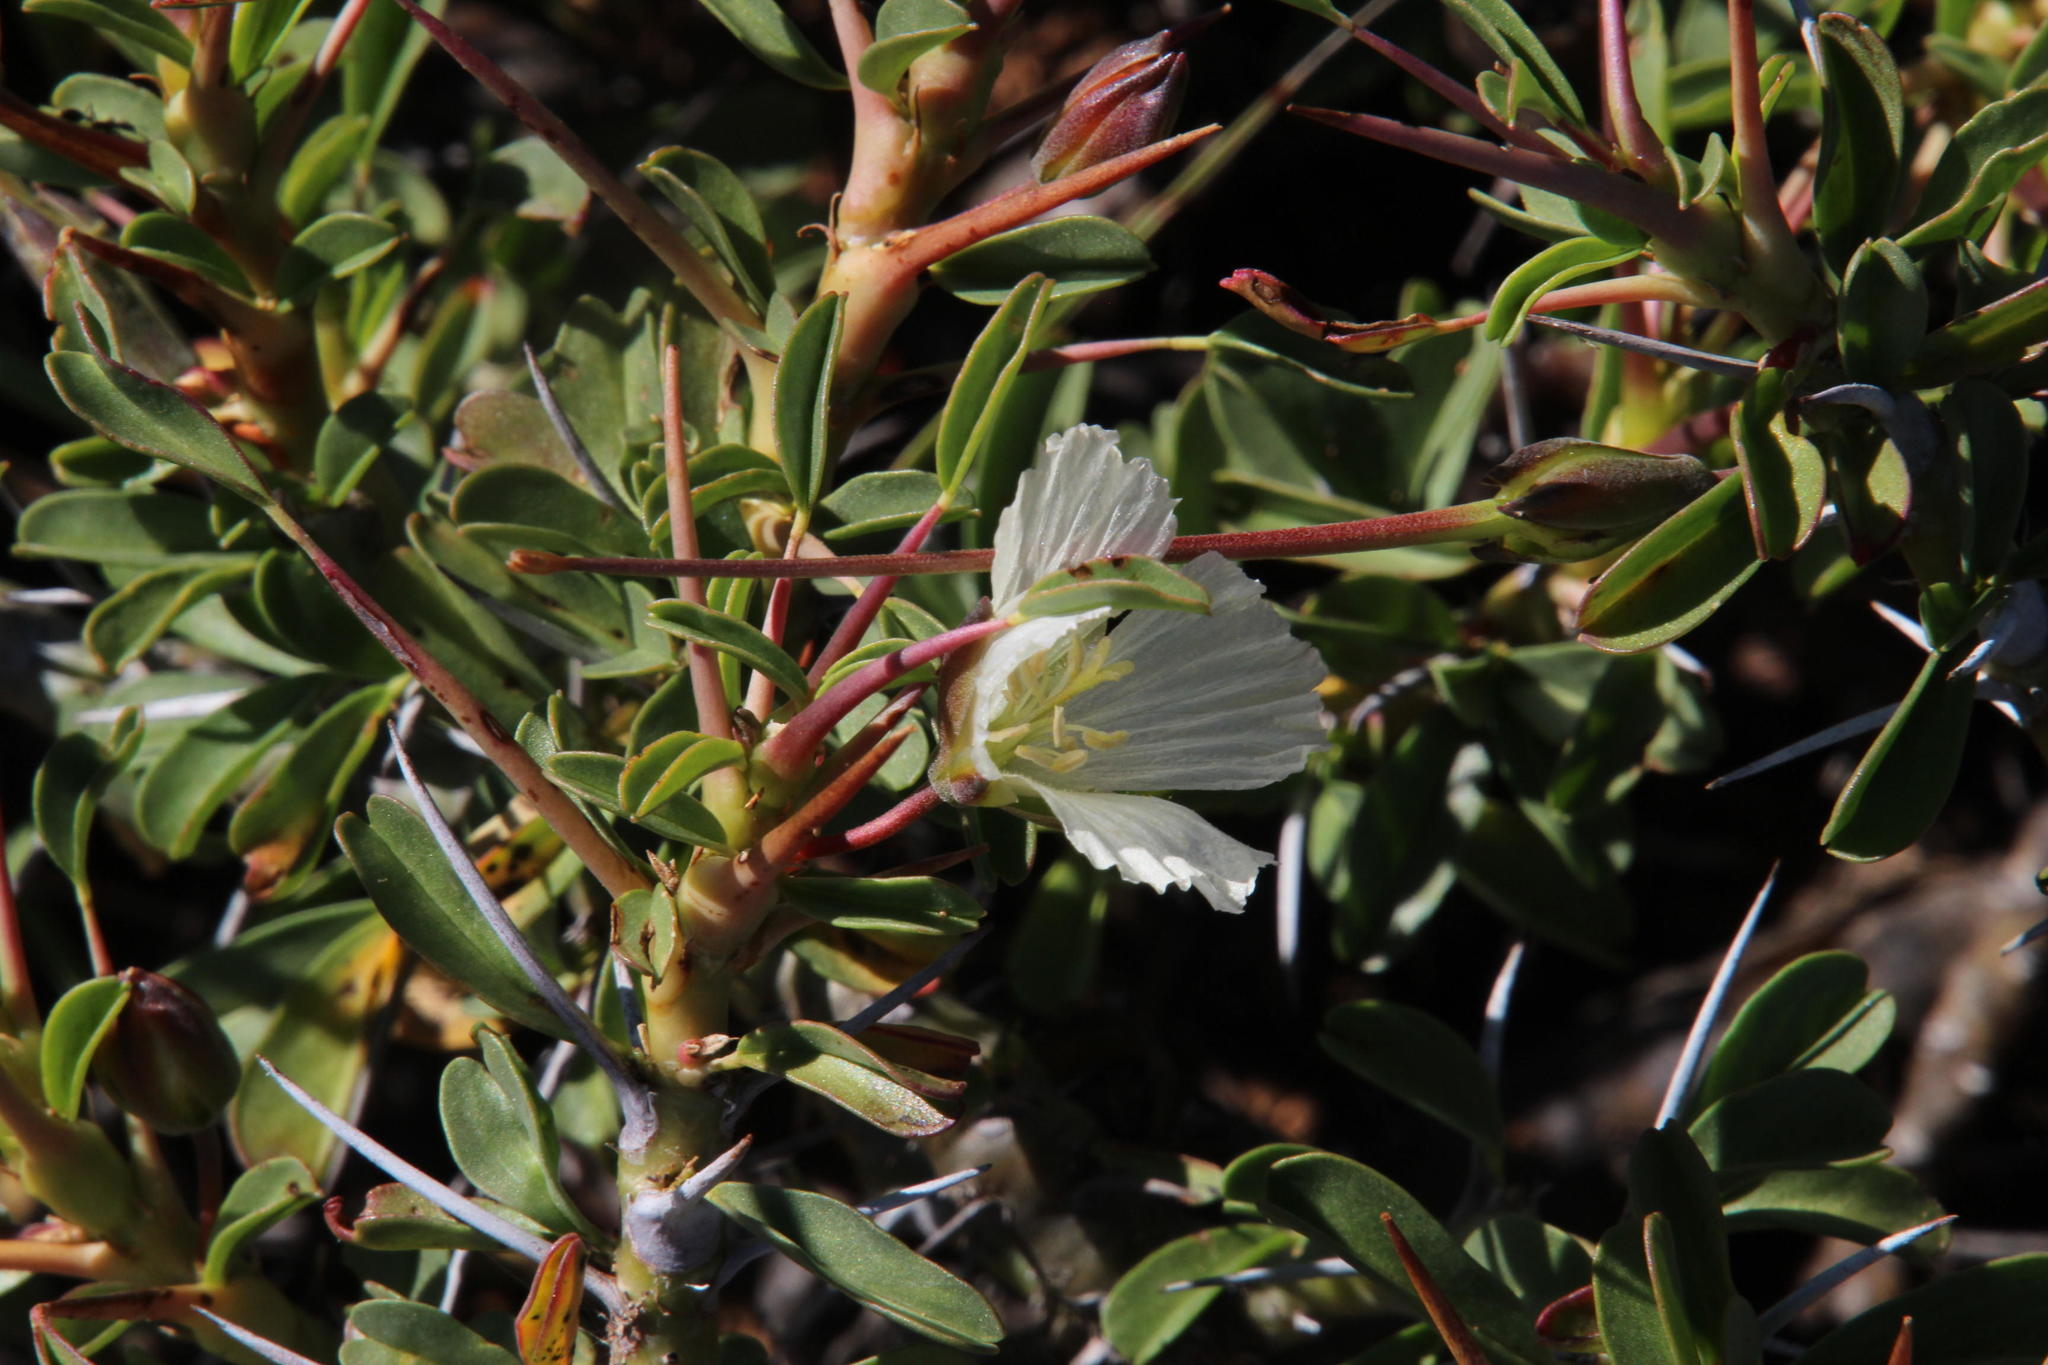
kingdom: Plantae
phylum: Tracheophyta
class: Magnoliopsida
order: Geraniales
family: Geraniaceae
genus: Monsonia
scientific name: Monsonia crassicaulis
